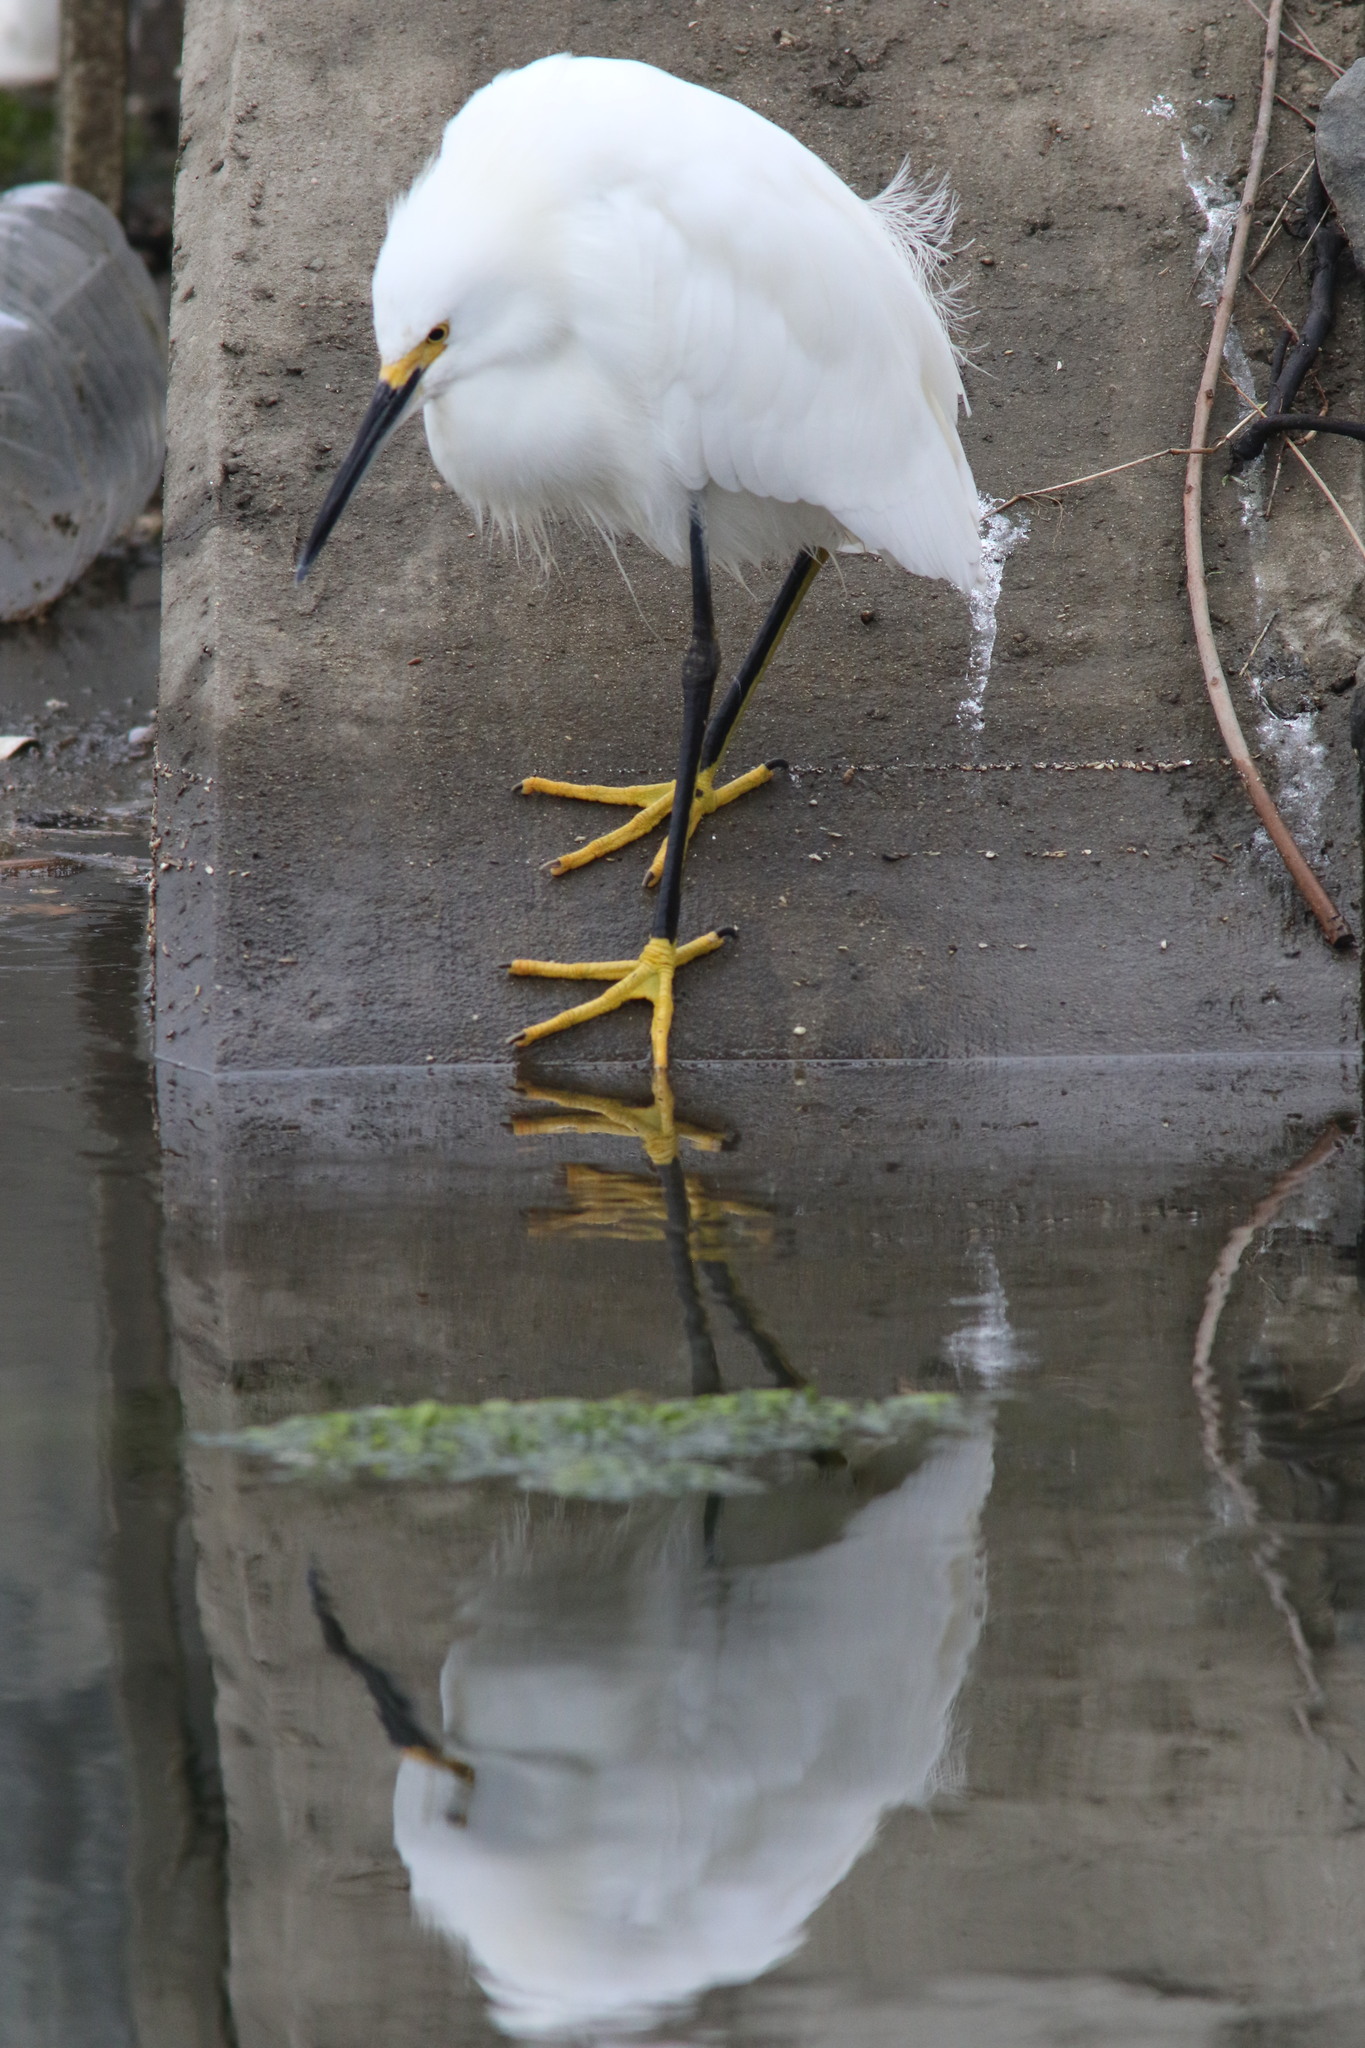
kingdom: Animalia
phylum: Chordata
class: Aves
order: Pelecaniformes
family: Ardeidae
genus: Egretta
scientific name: Egretta thula
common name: Snowy egret
